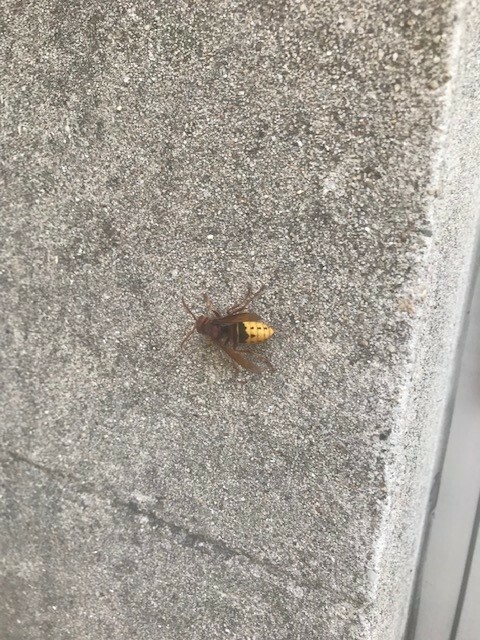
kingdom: Animalia
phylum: Arthropoda
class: Insecta
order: Hymenoptera
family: Vespidae
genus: Vespa
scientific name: Vespa crabro
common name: Hornet
